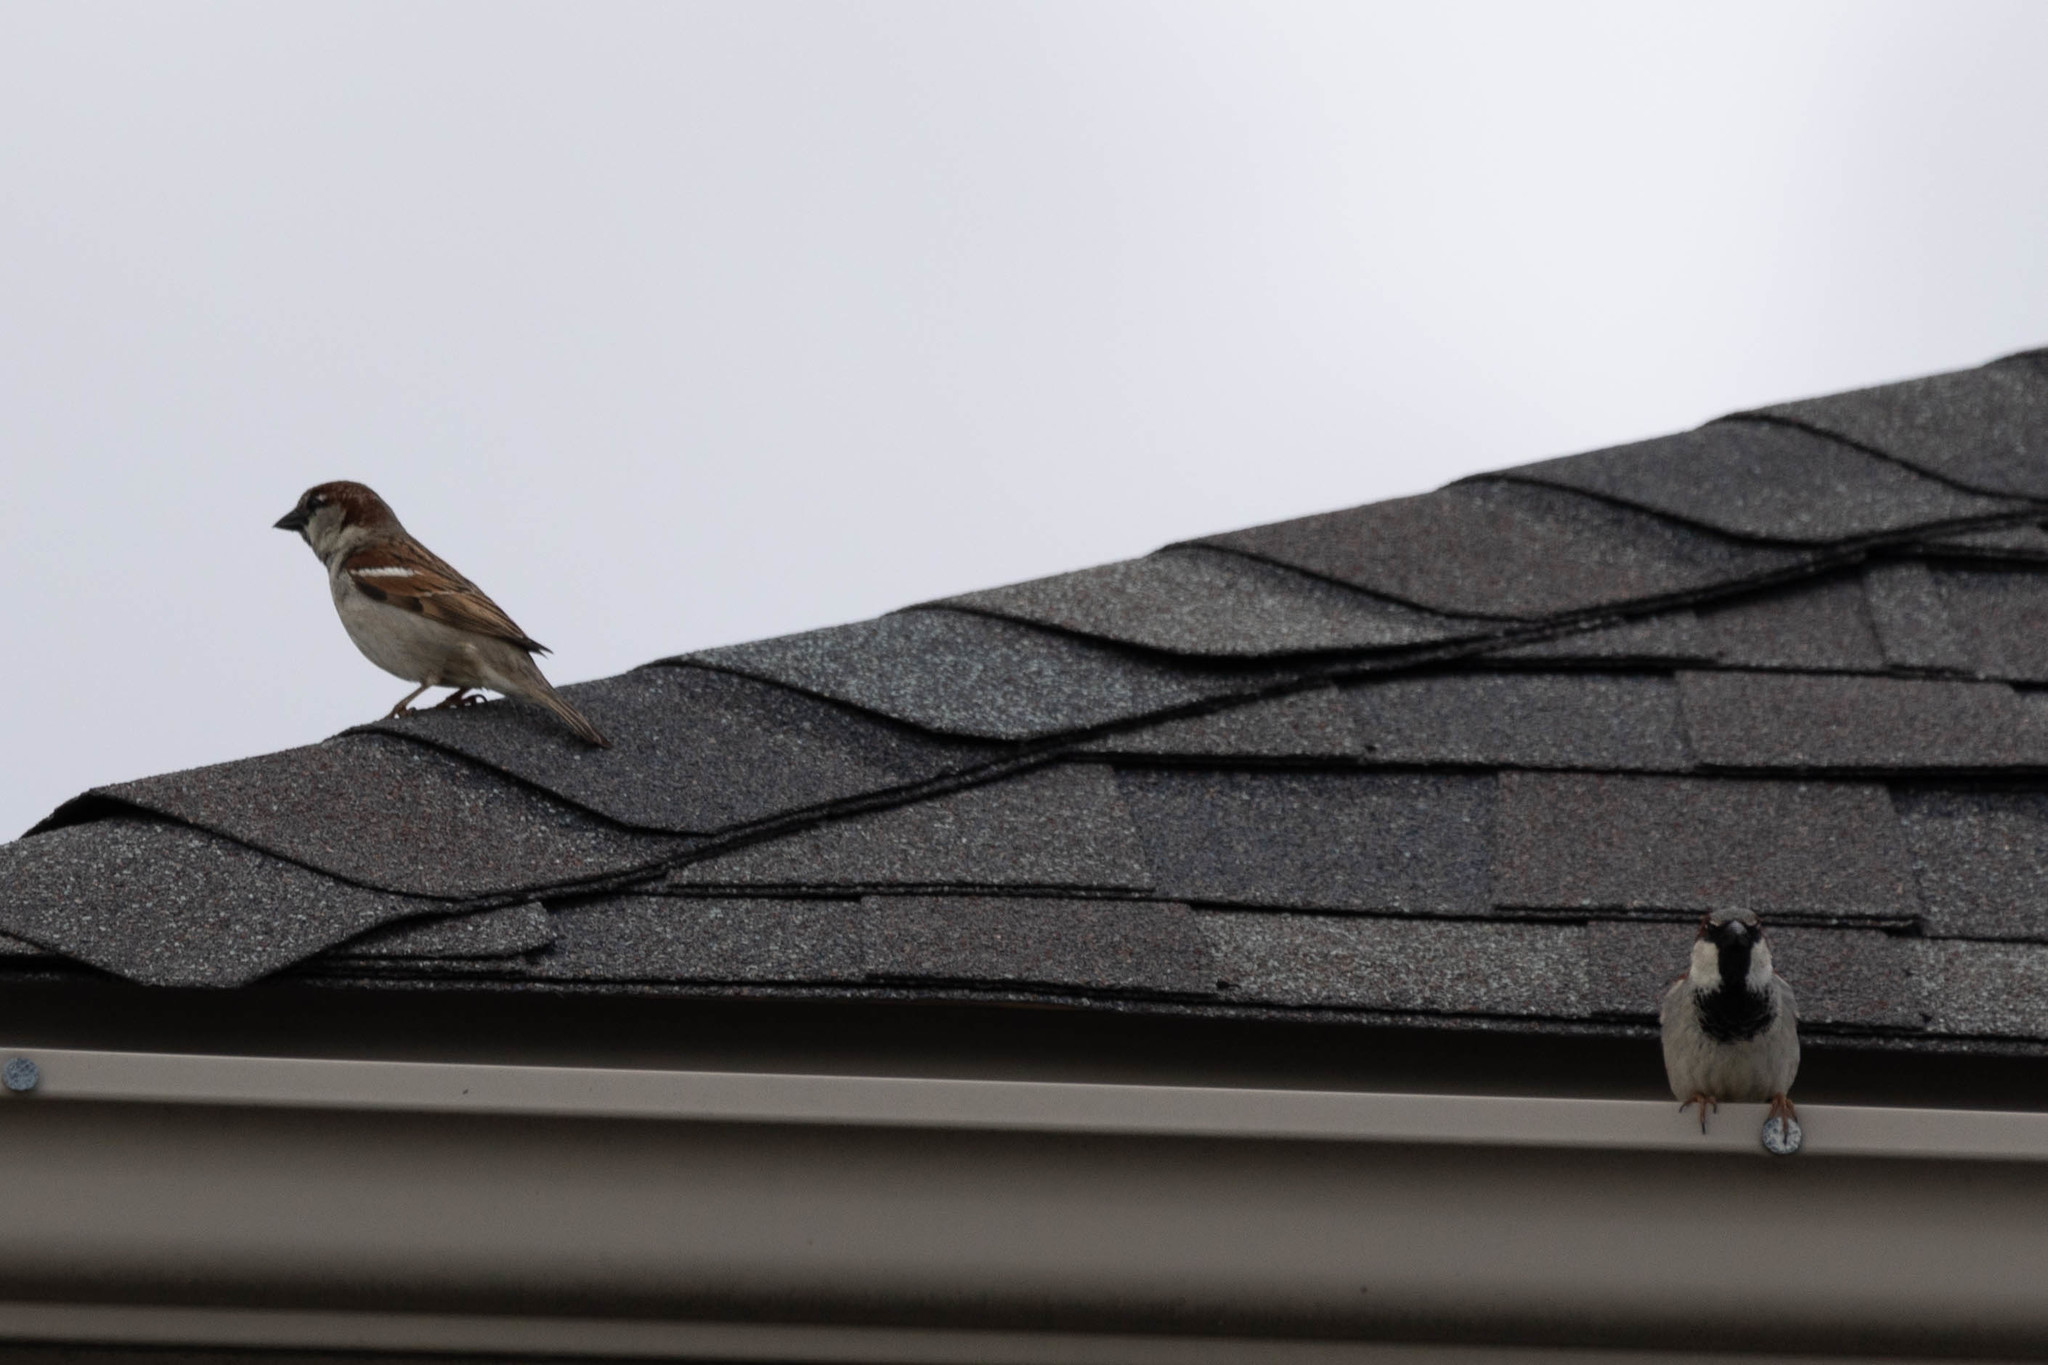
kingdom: Animalia
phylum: Chordata
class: Aves
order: Passeriformes
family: Passeridae
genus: Passer
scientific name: Passer domesticus
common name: House sparrow
